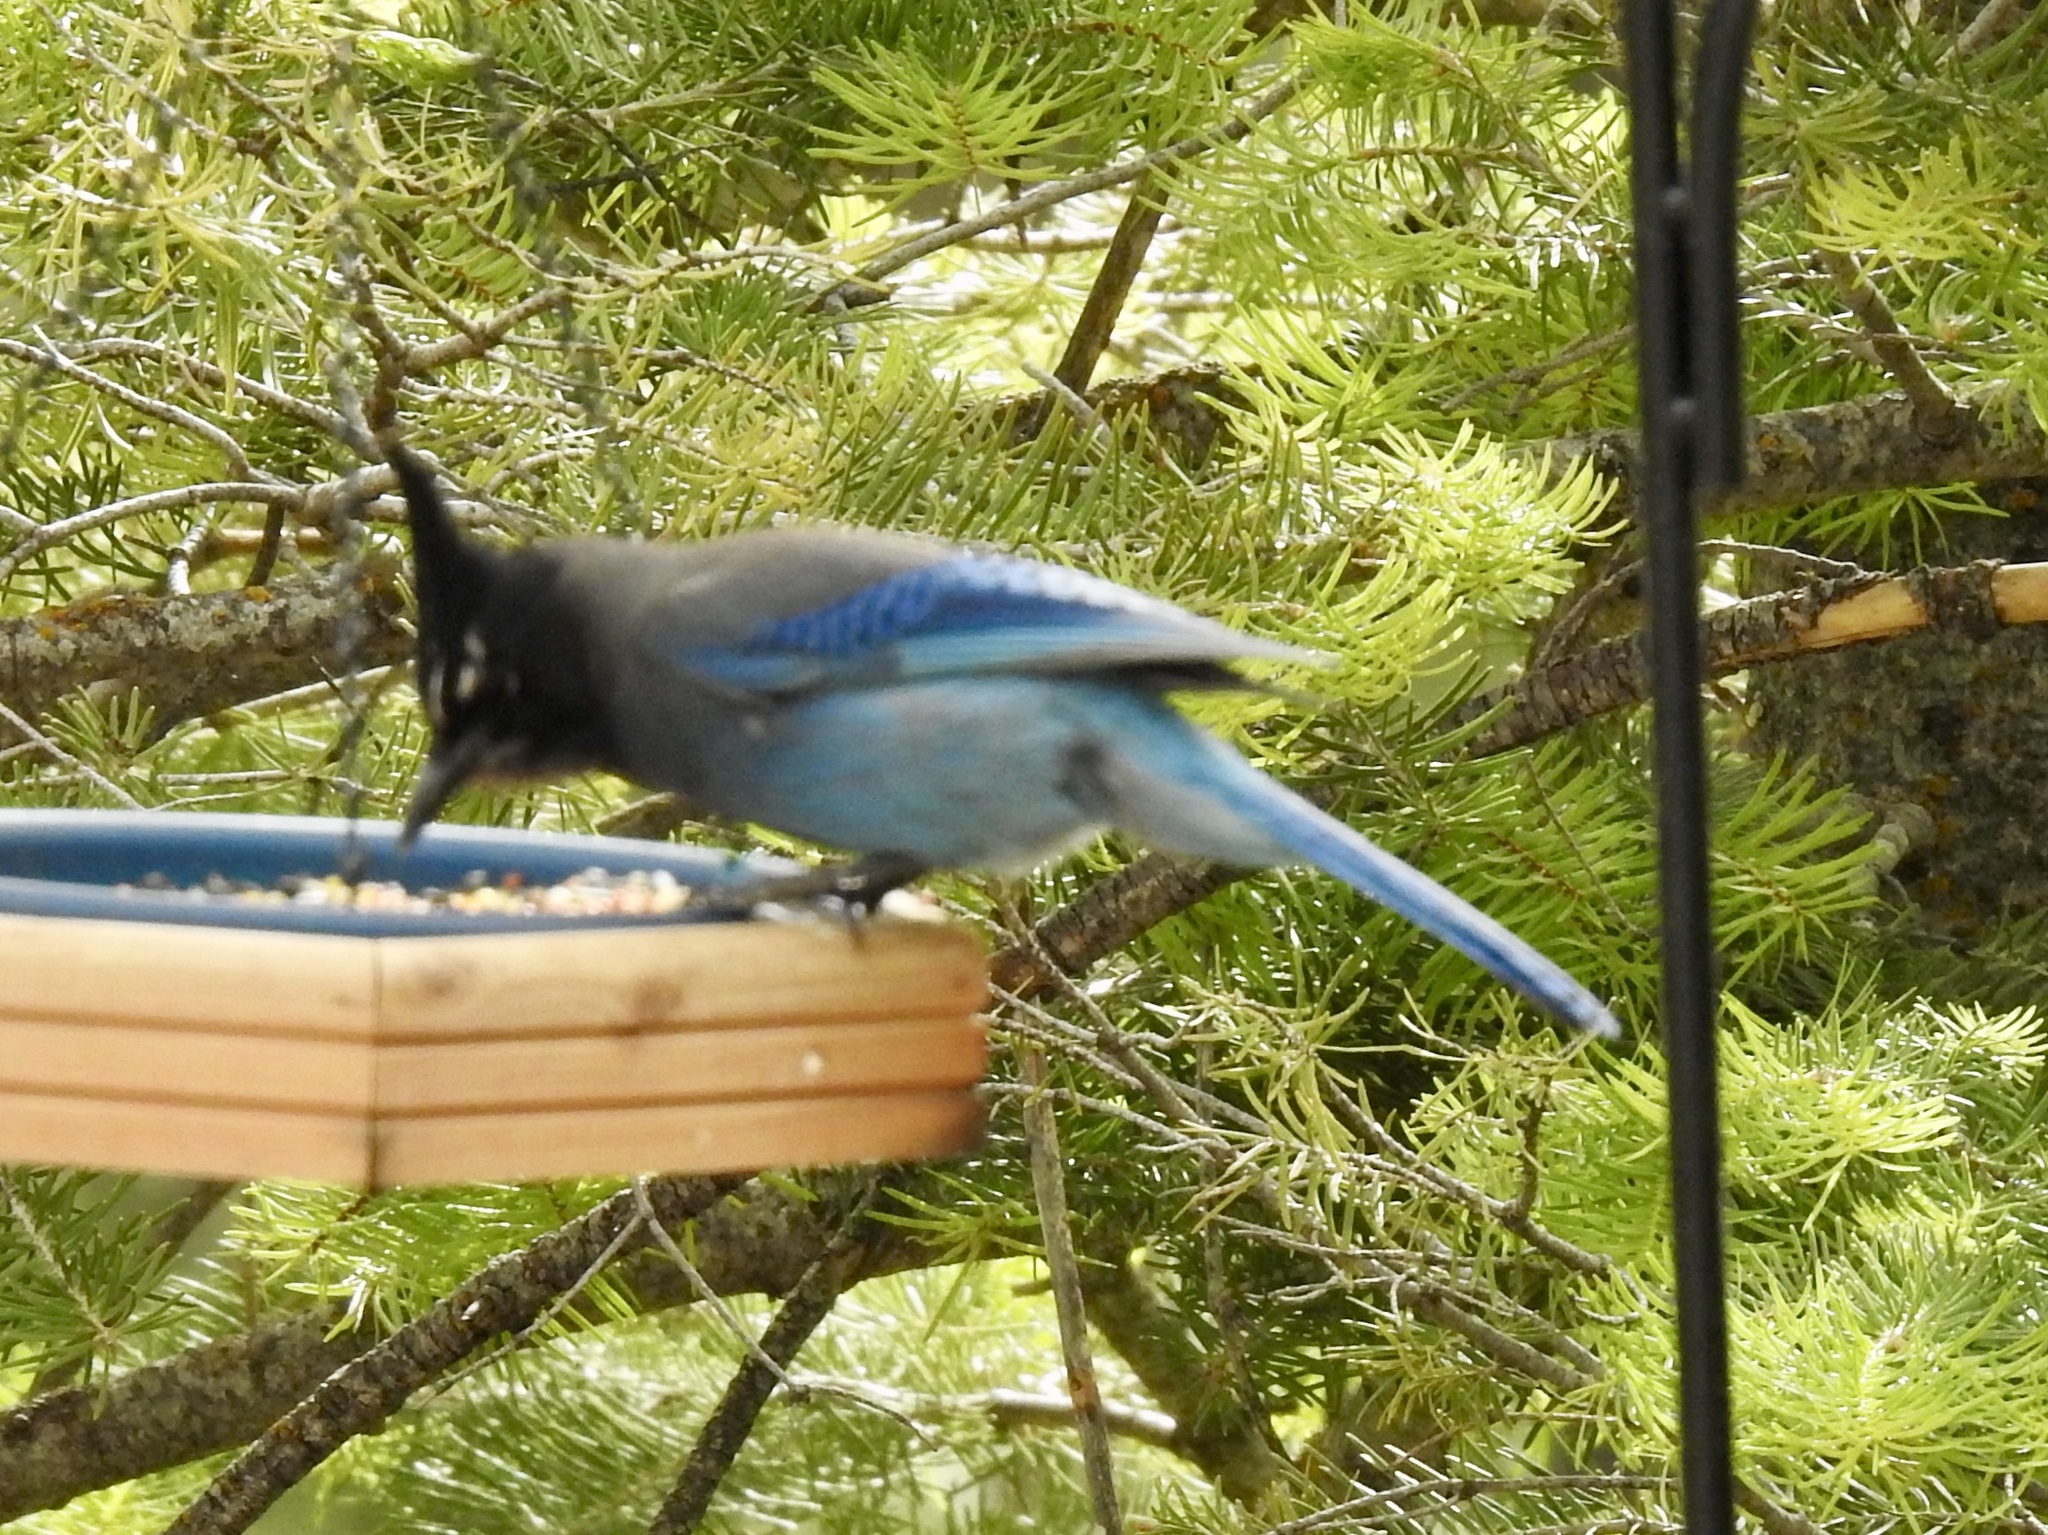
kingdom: Animalia
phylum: Chordata
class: Aves
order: Passeriformes
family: Corvidae
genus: Cyanocitta
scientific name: Cyanocitta stelleri
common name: Steller's jay
